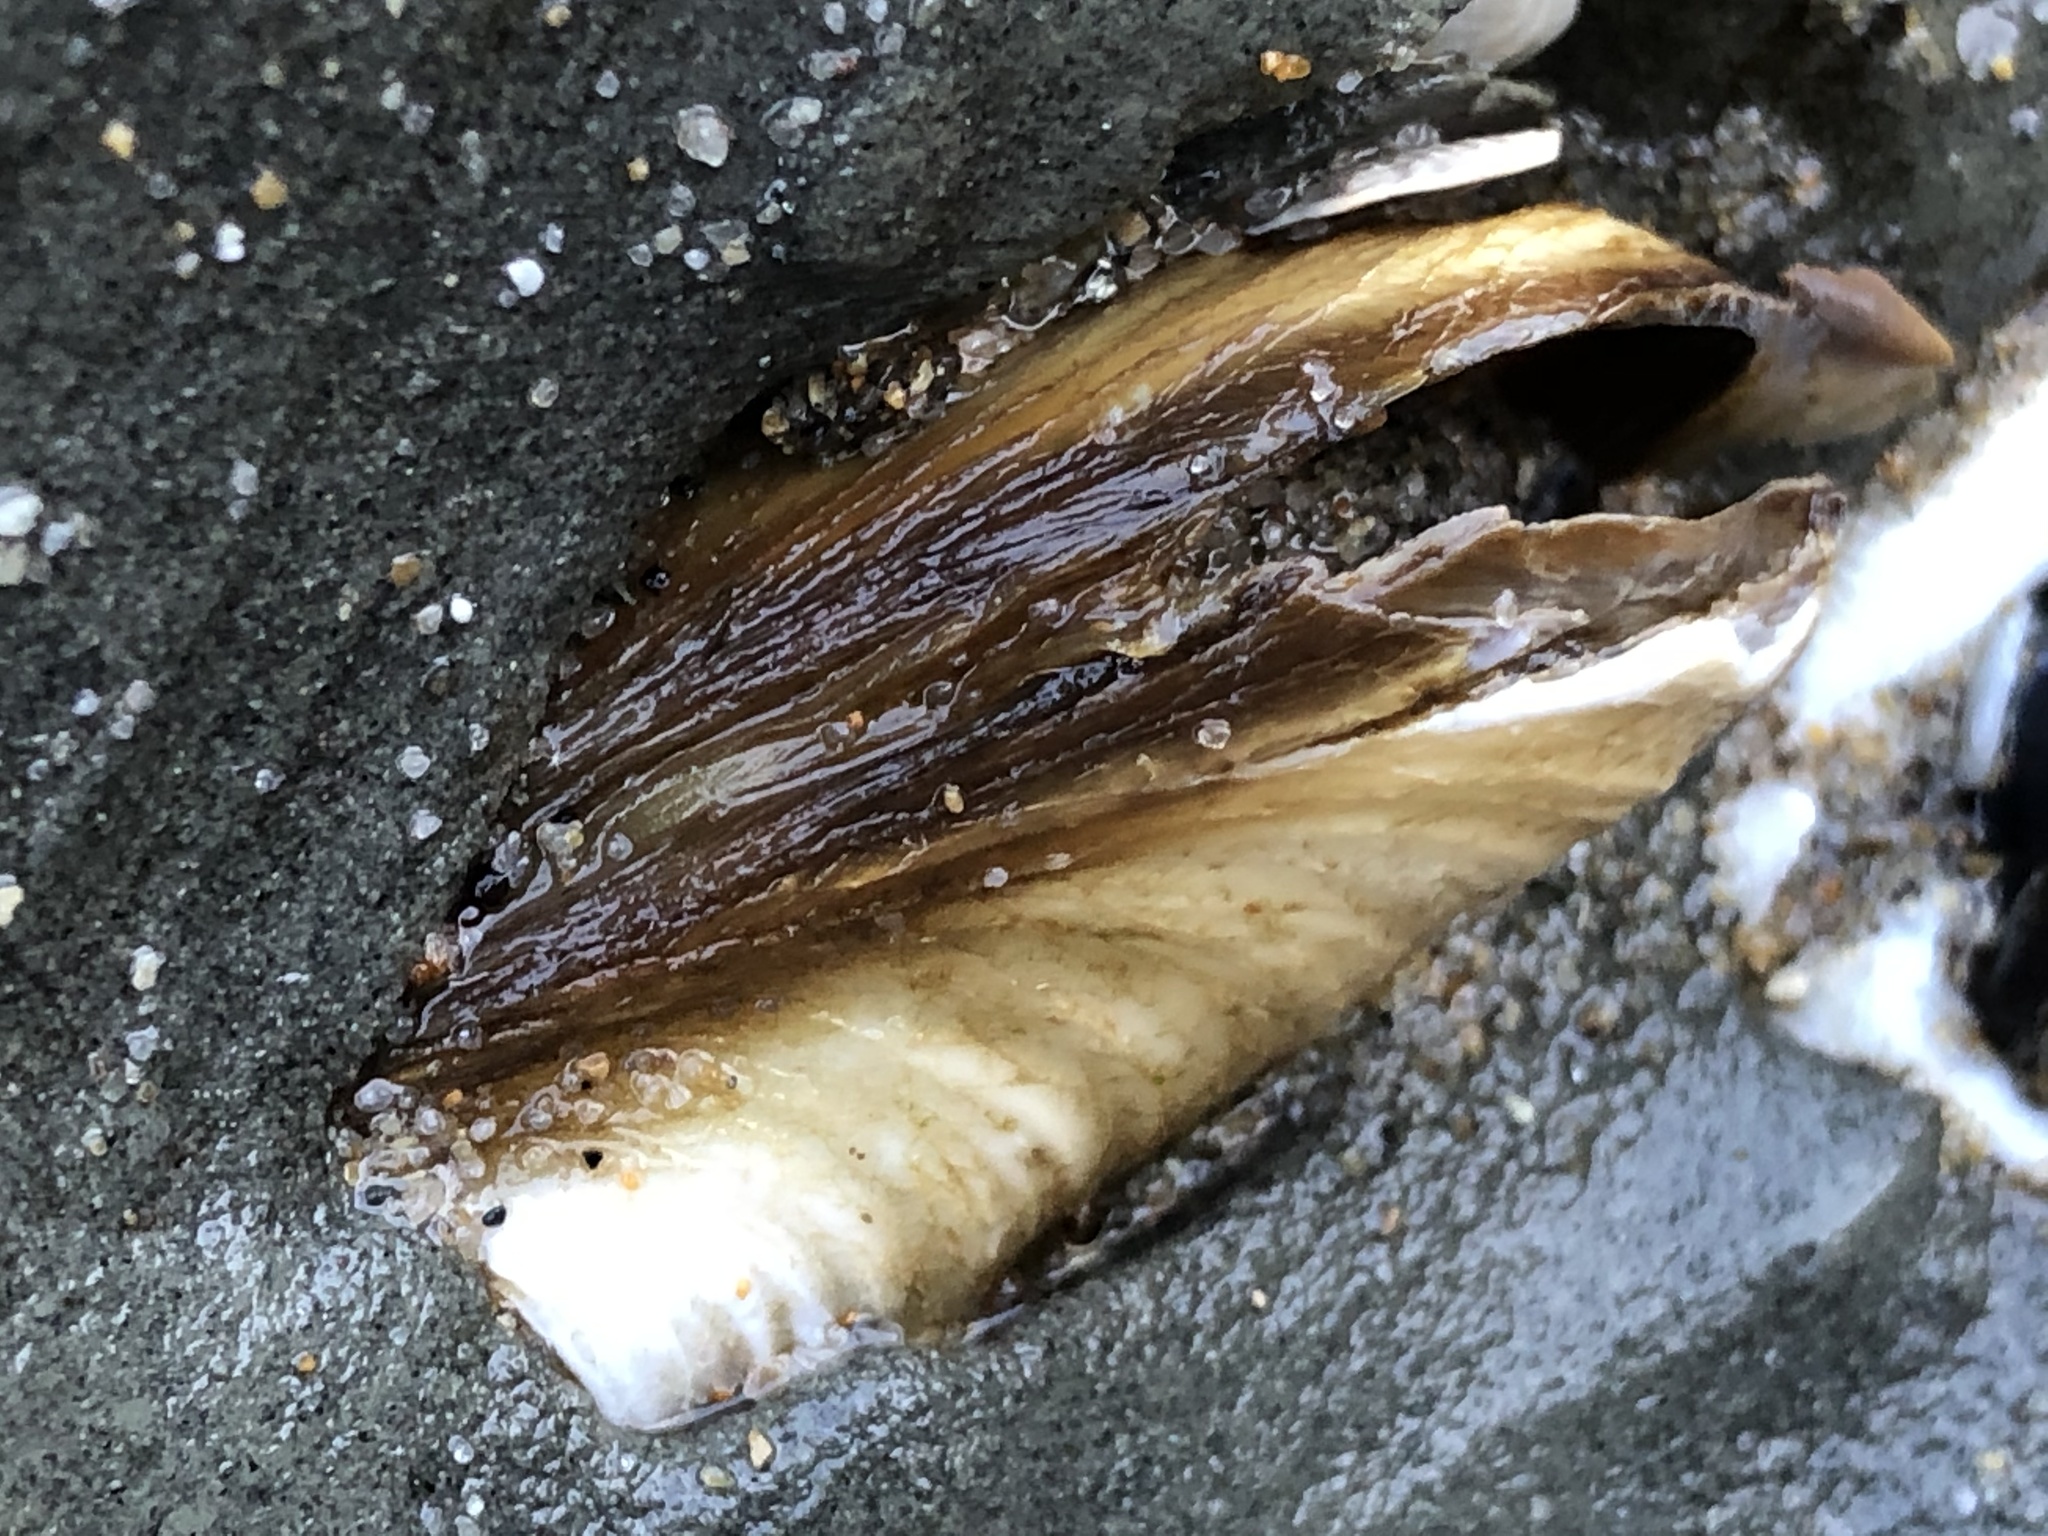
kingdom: Animalia
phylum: Mollusca
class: Bivalvia
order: Myida
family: Pholadidae
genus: Parapholas
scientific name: Parapholas californica
